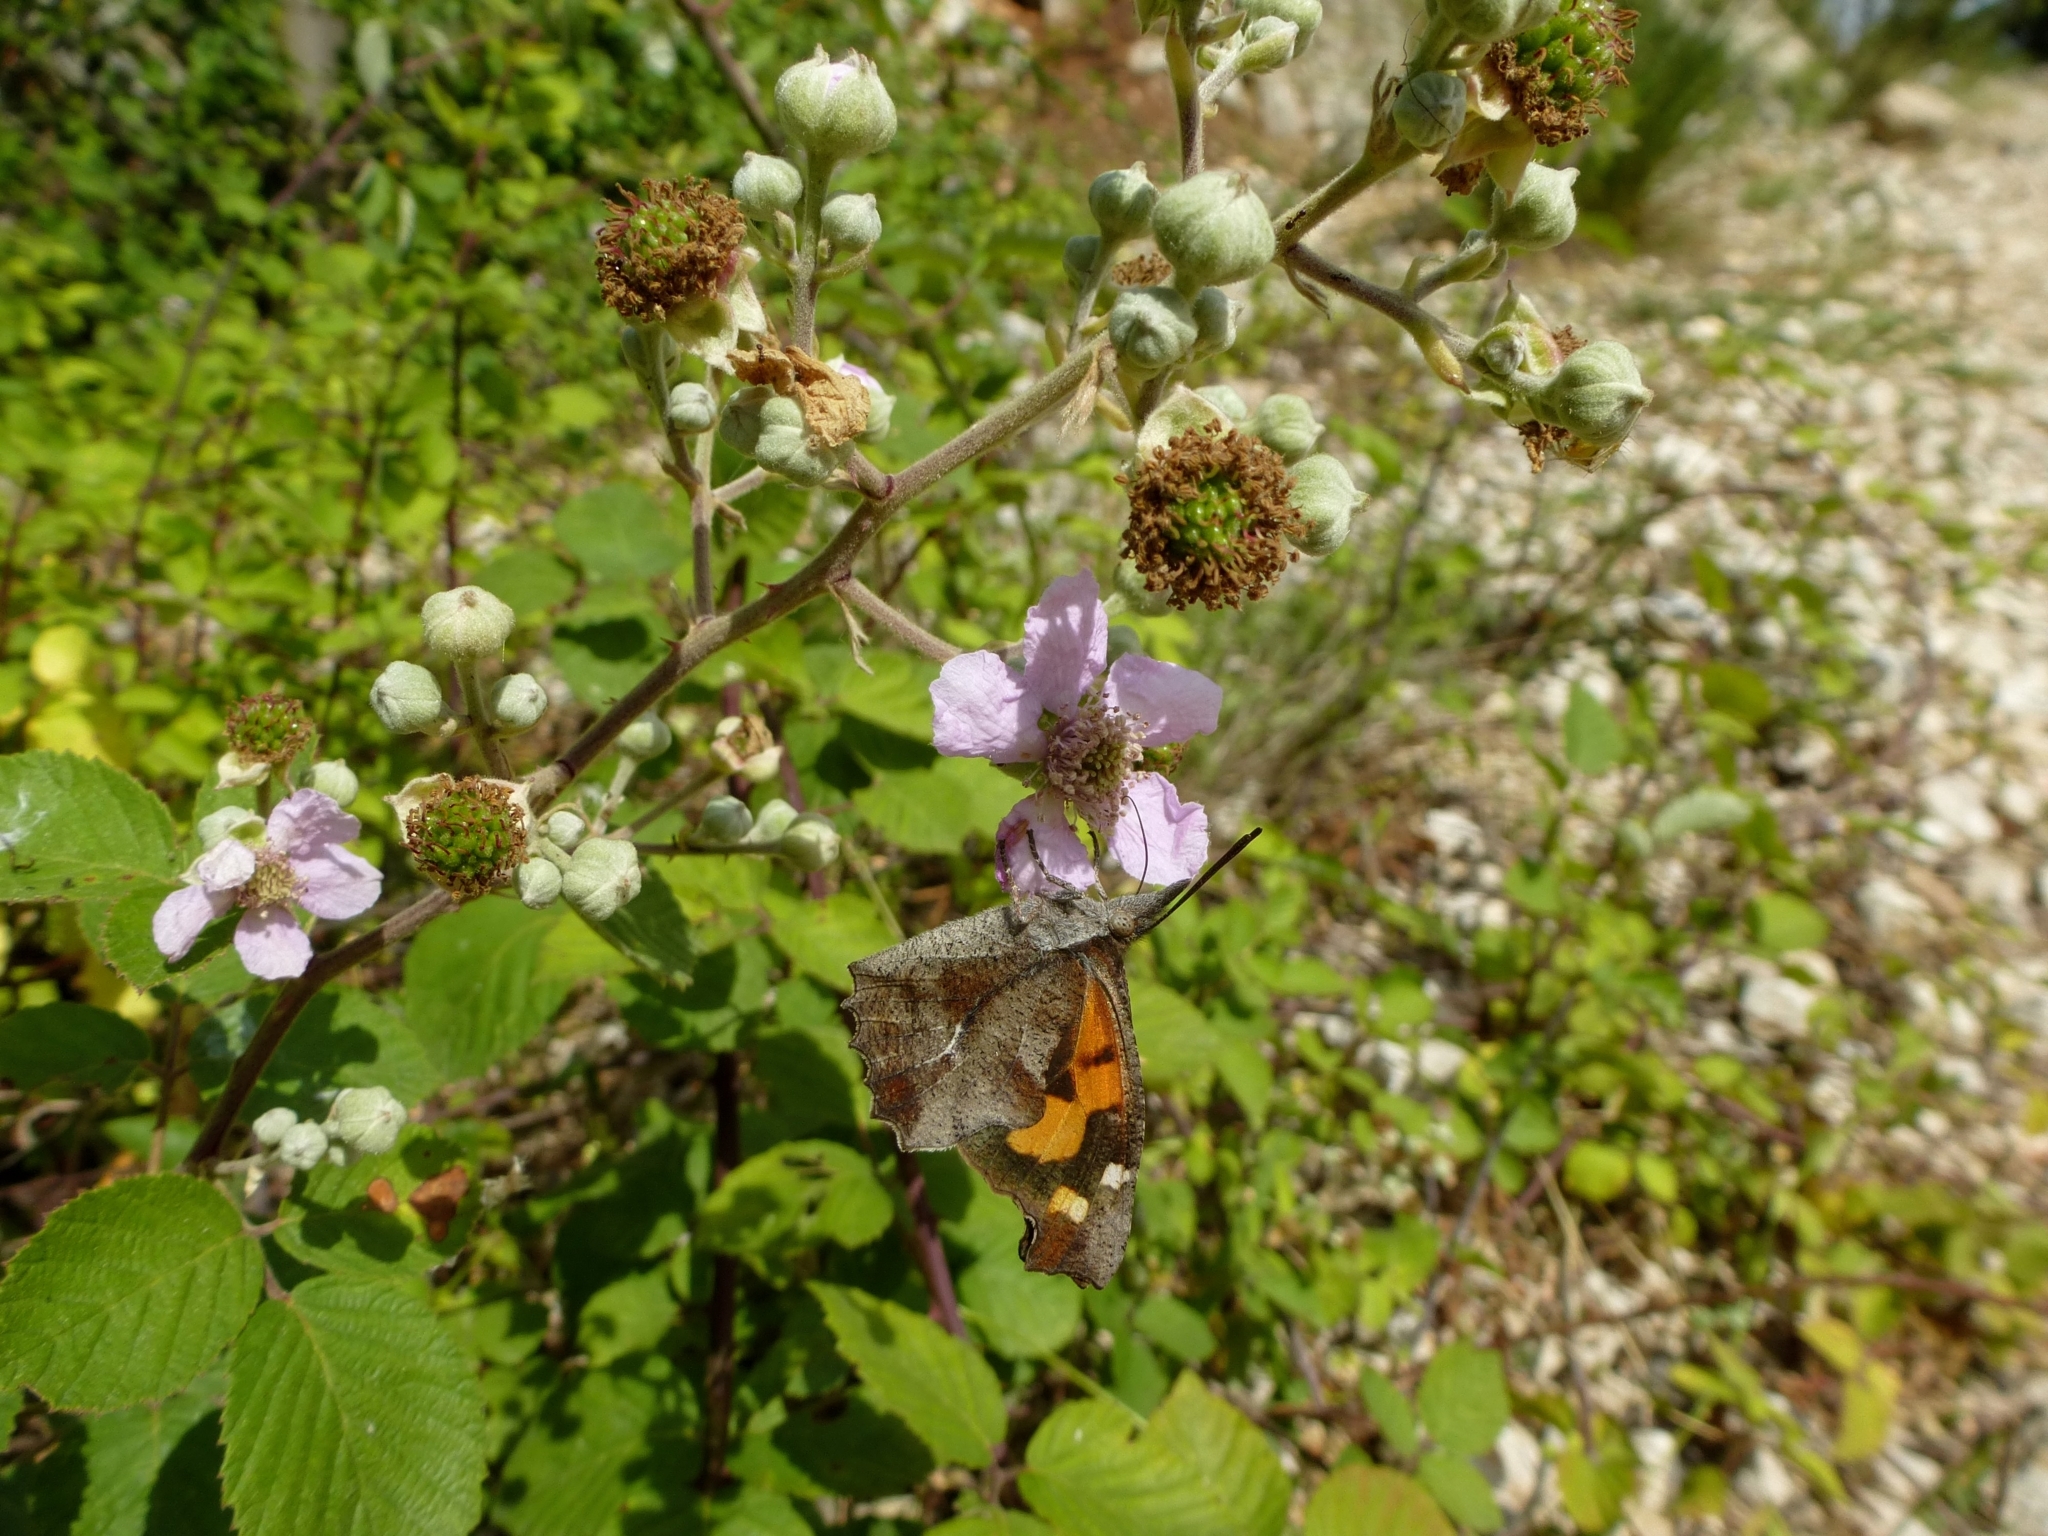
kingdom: Animalia
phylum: Arthropoda
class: Insecta
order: Lepidoptera
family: Nymphalidae
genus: Libythea
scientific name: Libythea celtis
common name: Nettle-tree butterfly
